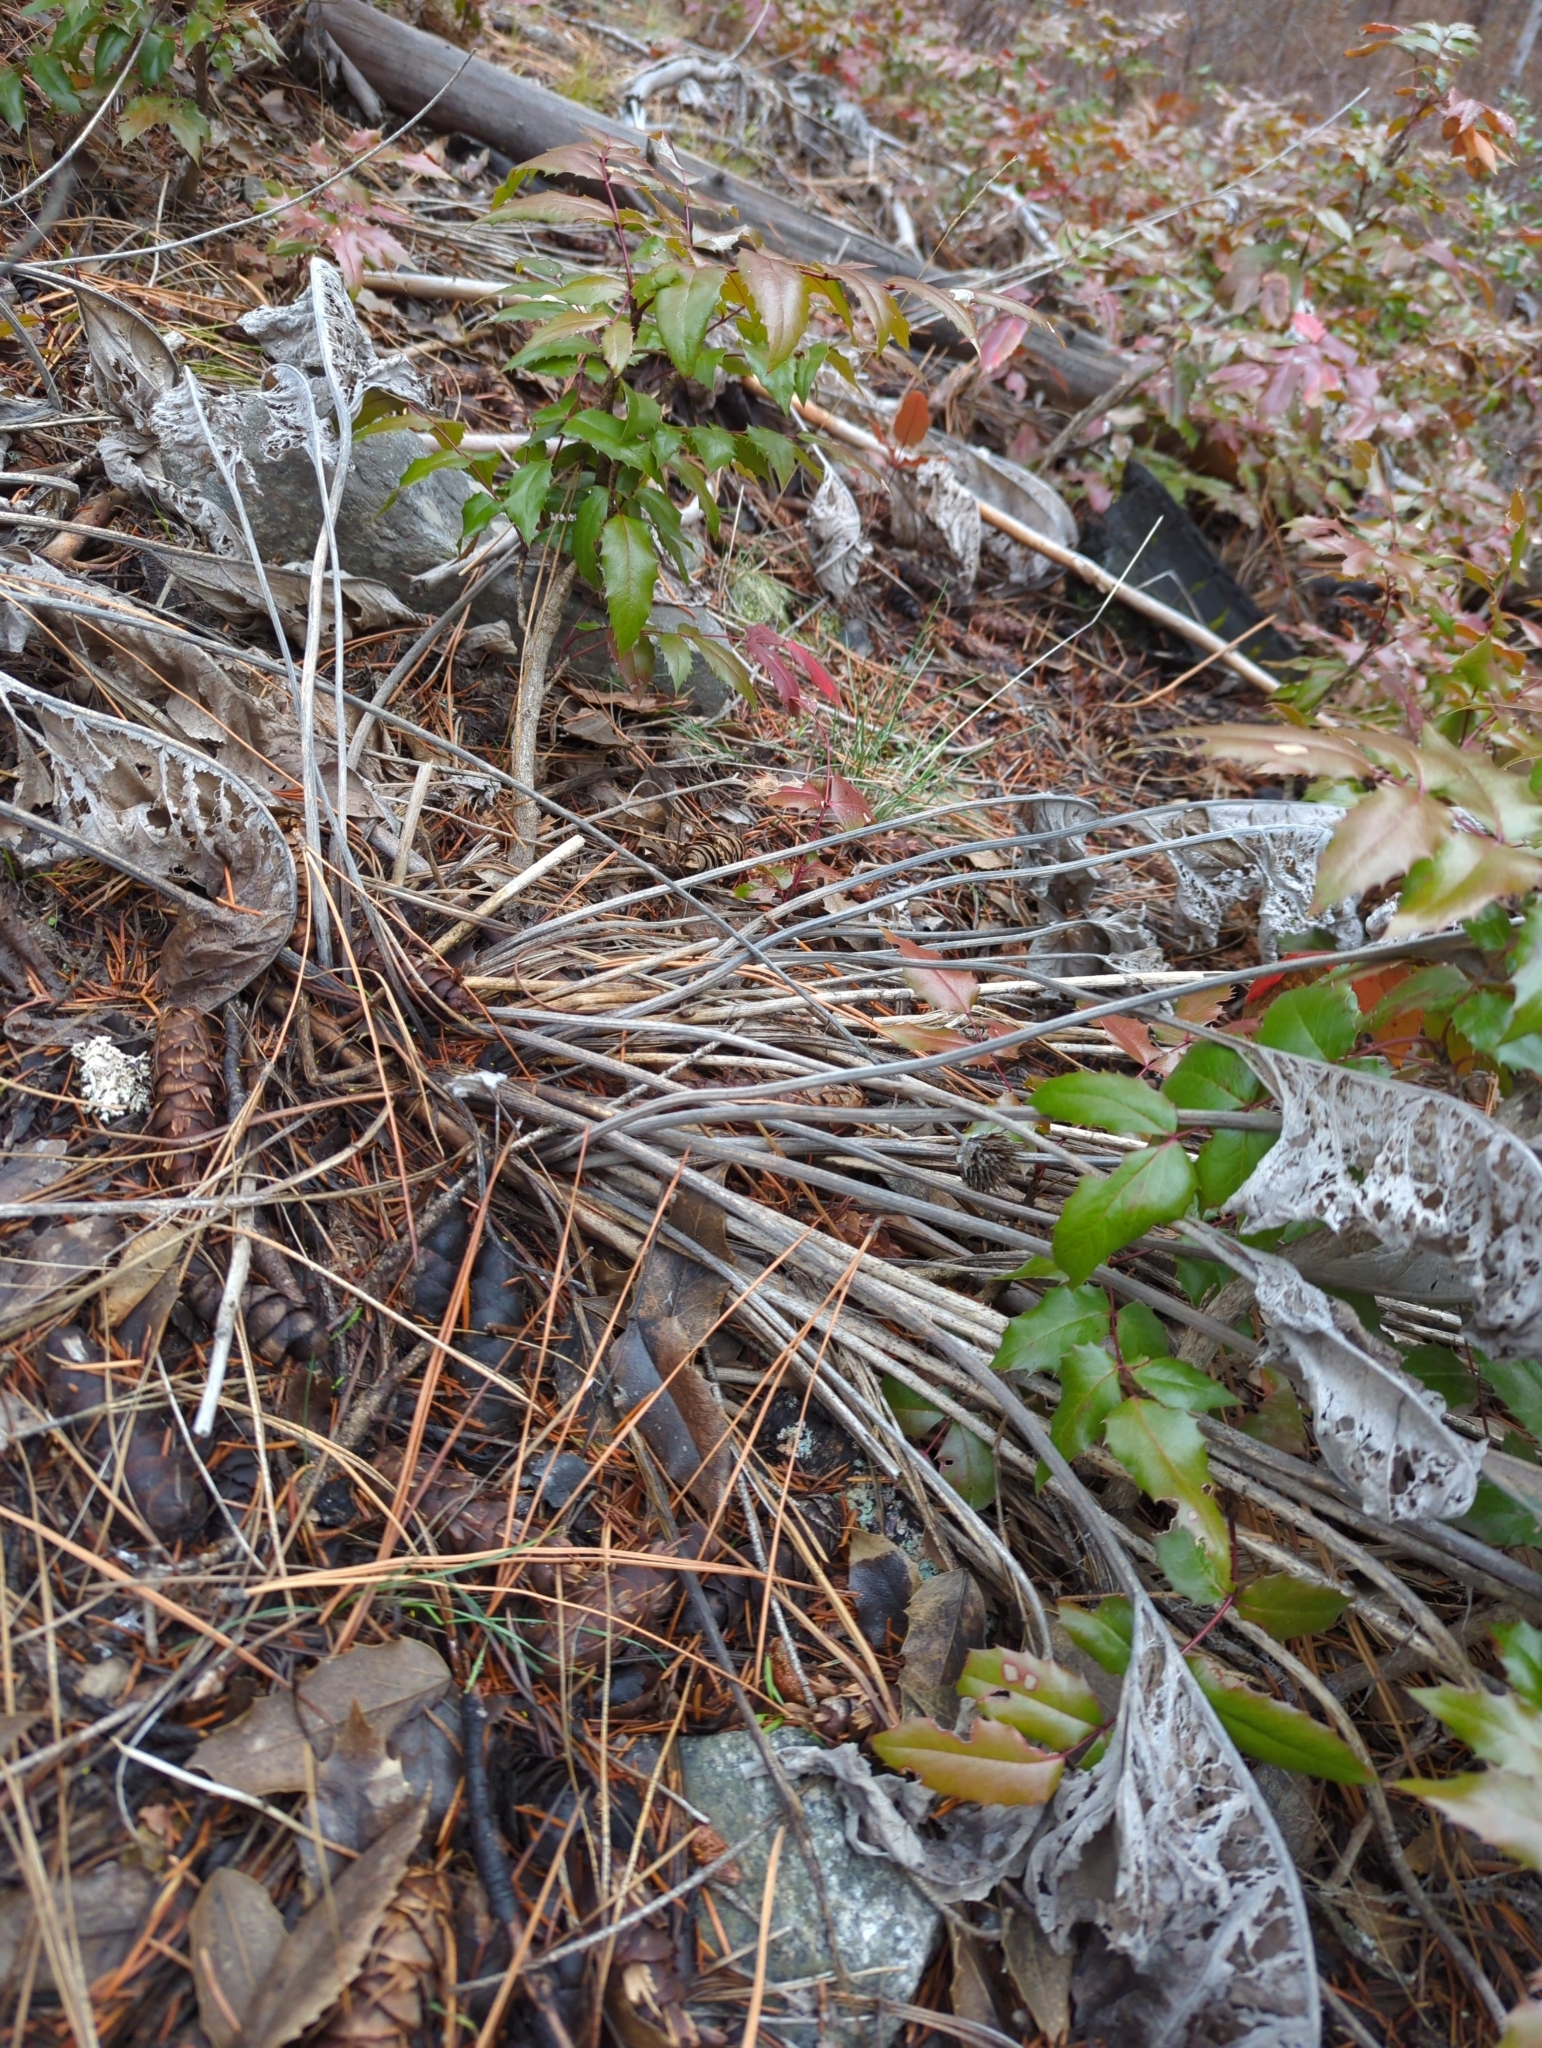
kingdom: Plantae
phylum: Tracheophyta
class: Magnoliopsida
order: Asterales
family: Asteraceae
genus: Wyethia
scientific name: Wyethia sagittata
